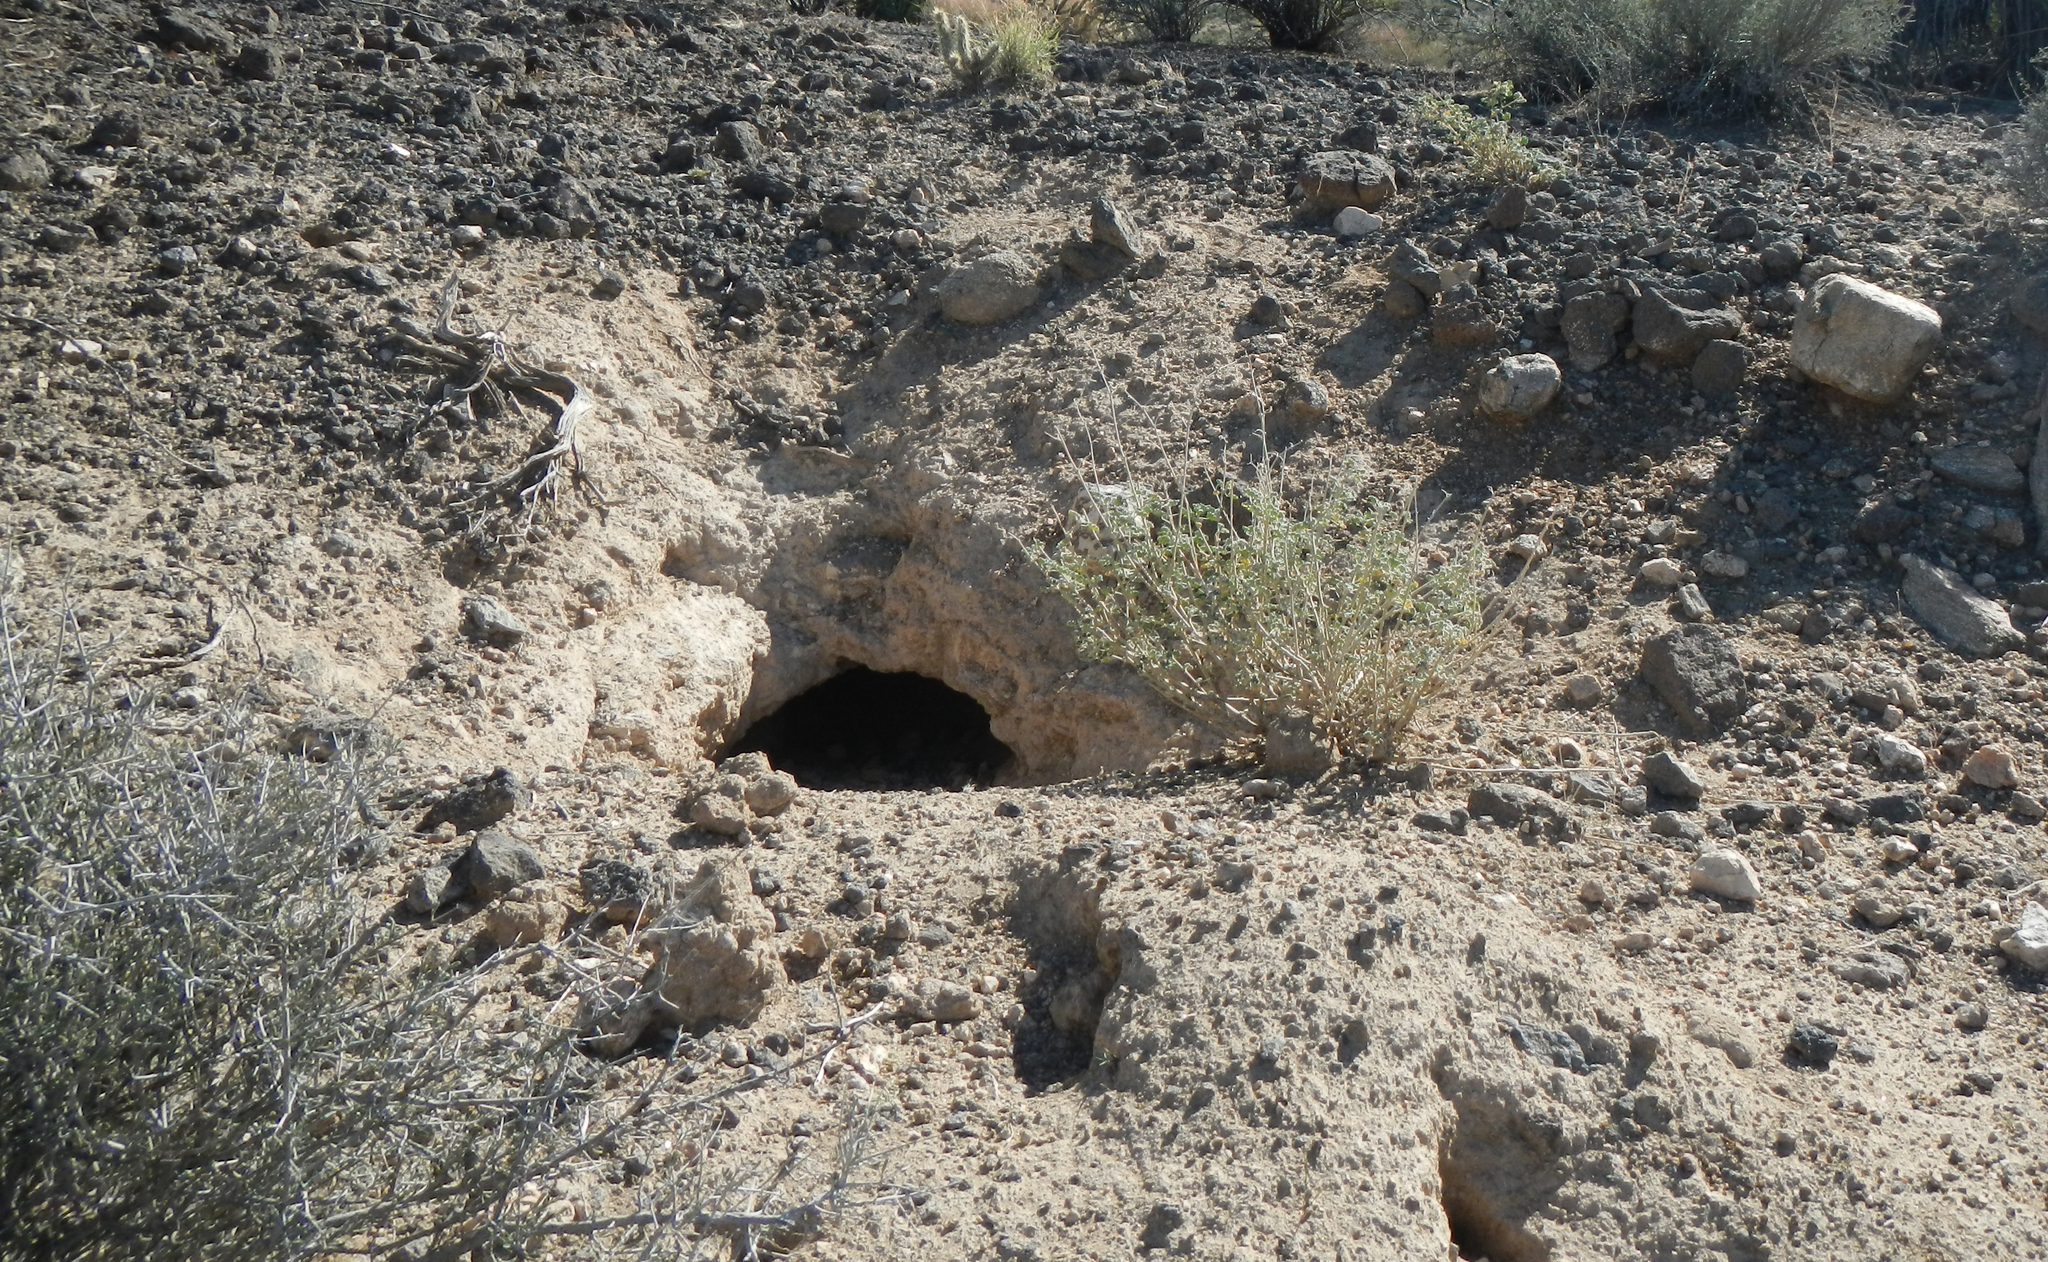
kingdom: Animalia
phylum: Chordata
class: Testudines
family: Testudinidae
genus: Gopherus
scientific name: Gopherus agassizii
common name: Mojave desert tortoise
